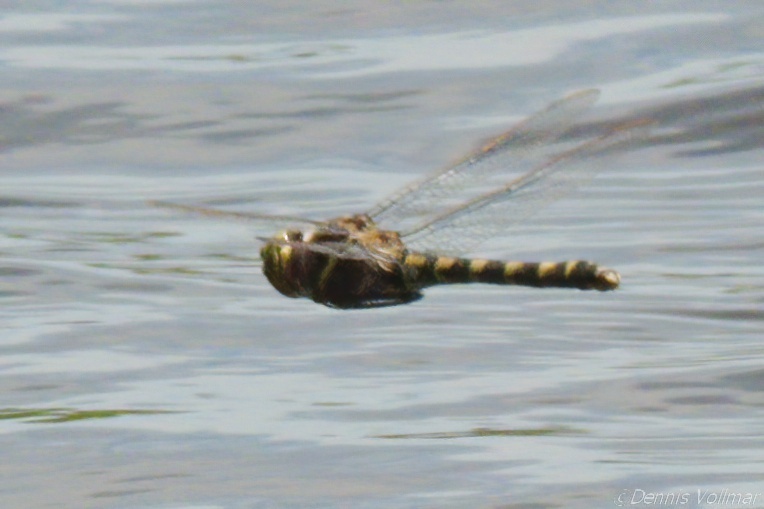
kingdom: Animalia
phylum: Arthropoda
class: Insecta
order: Odonata
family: Macromiidae
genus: Didymops
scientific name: Didymops floridensis
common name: Florida cruiser
